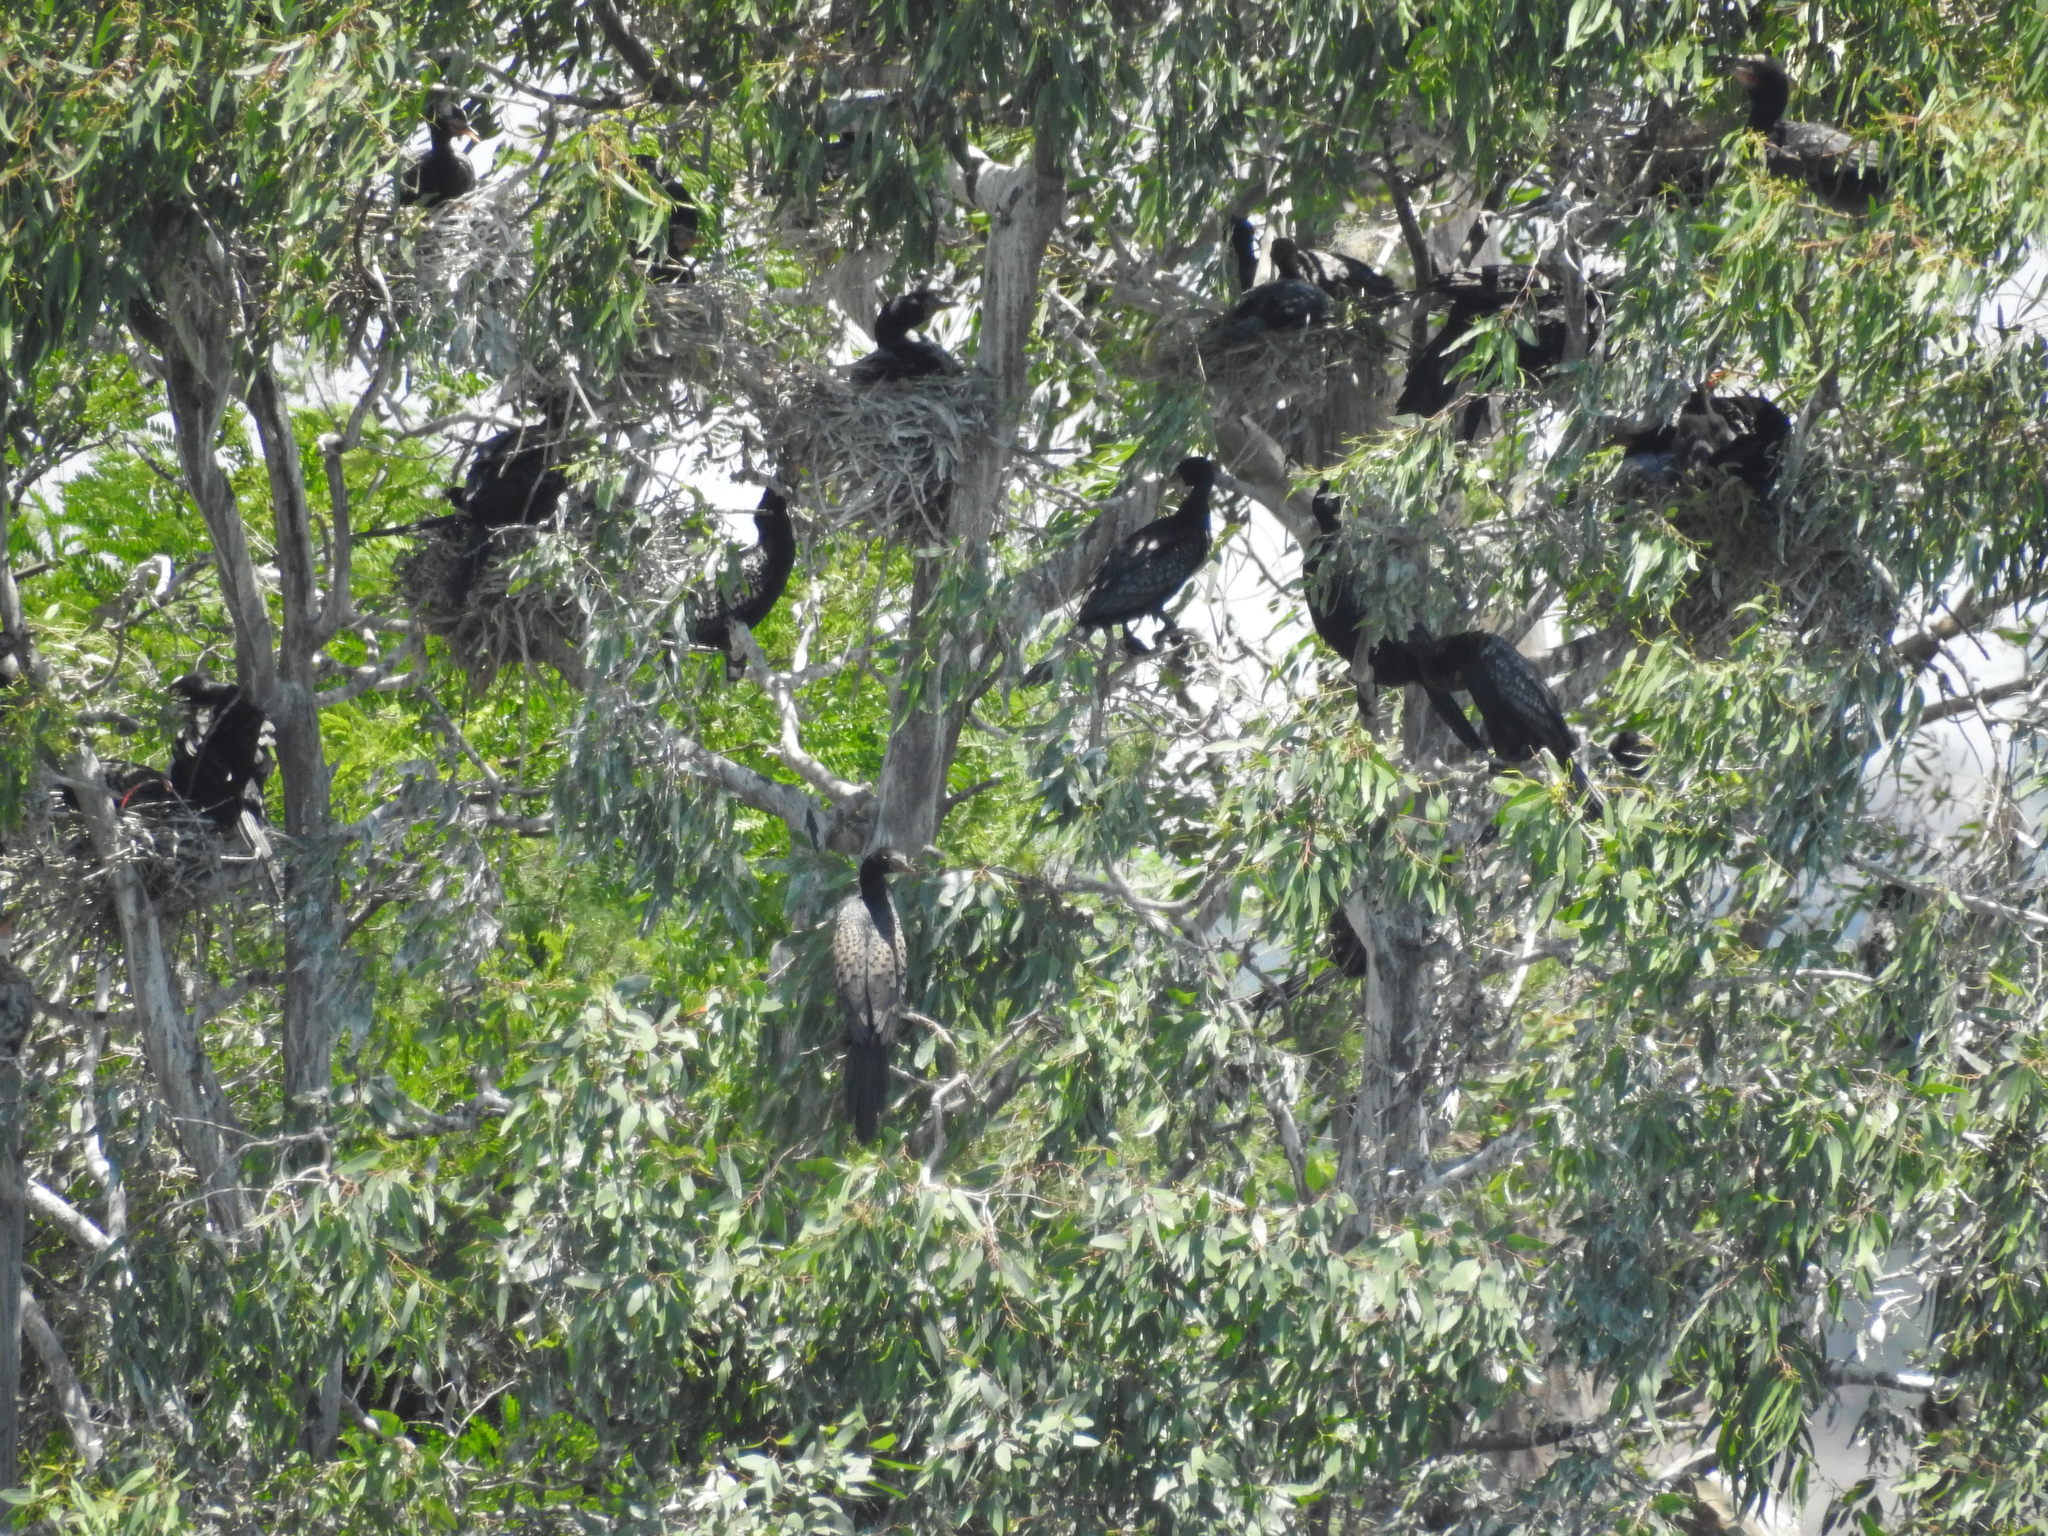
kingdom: Animalia
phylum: Chordata
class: Aves
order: Suliformes
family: Phalacrocoracidae
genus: Microcarbo
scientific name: Microcarbo africanus
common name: Long-tailed cormorant
